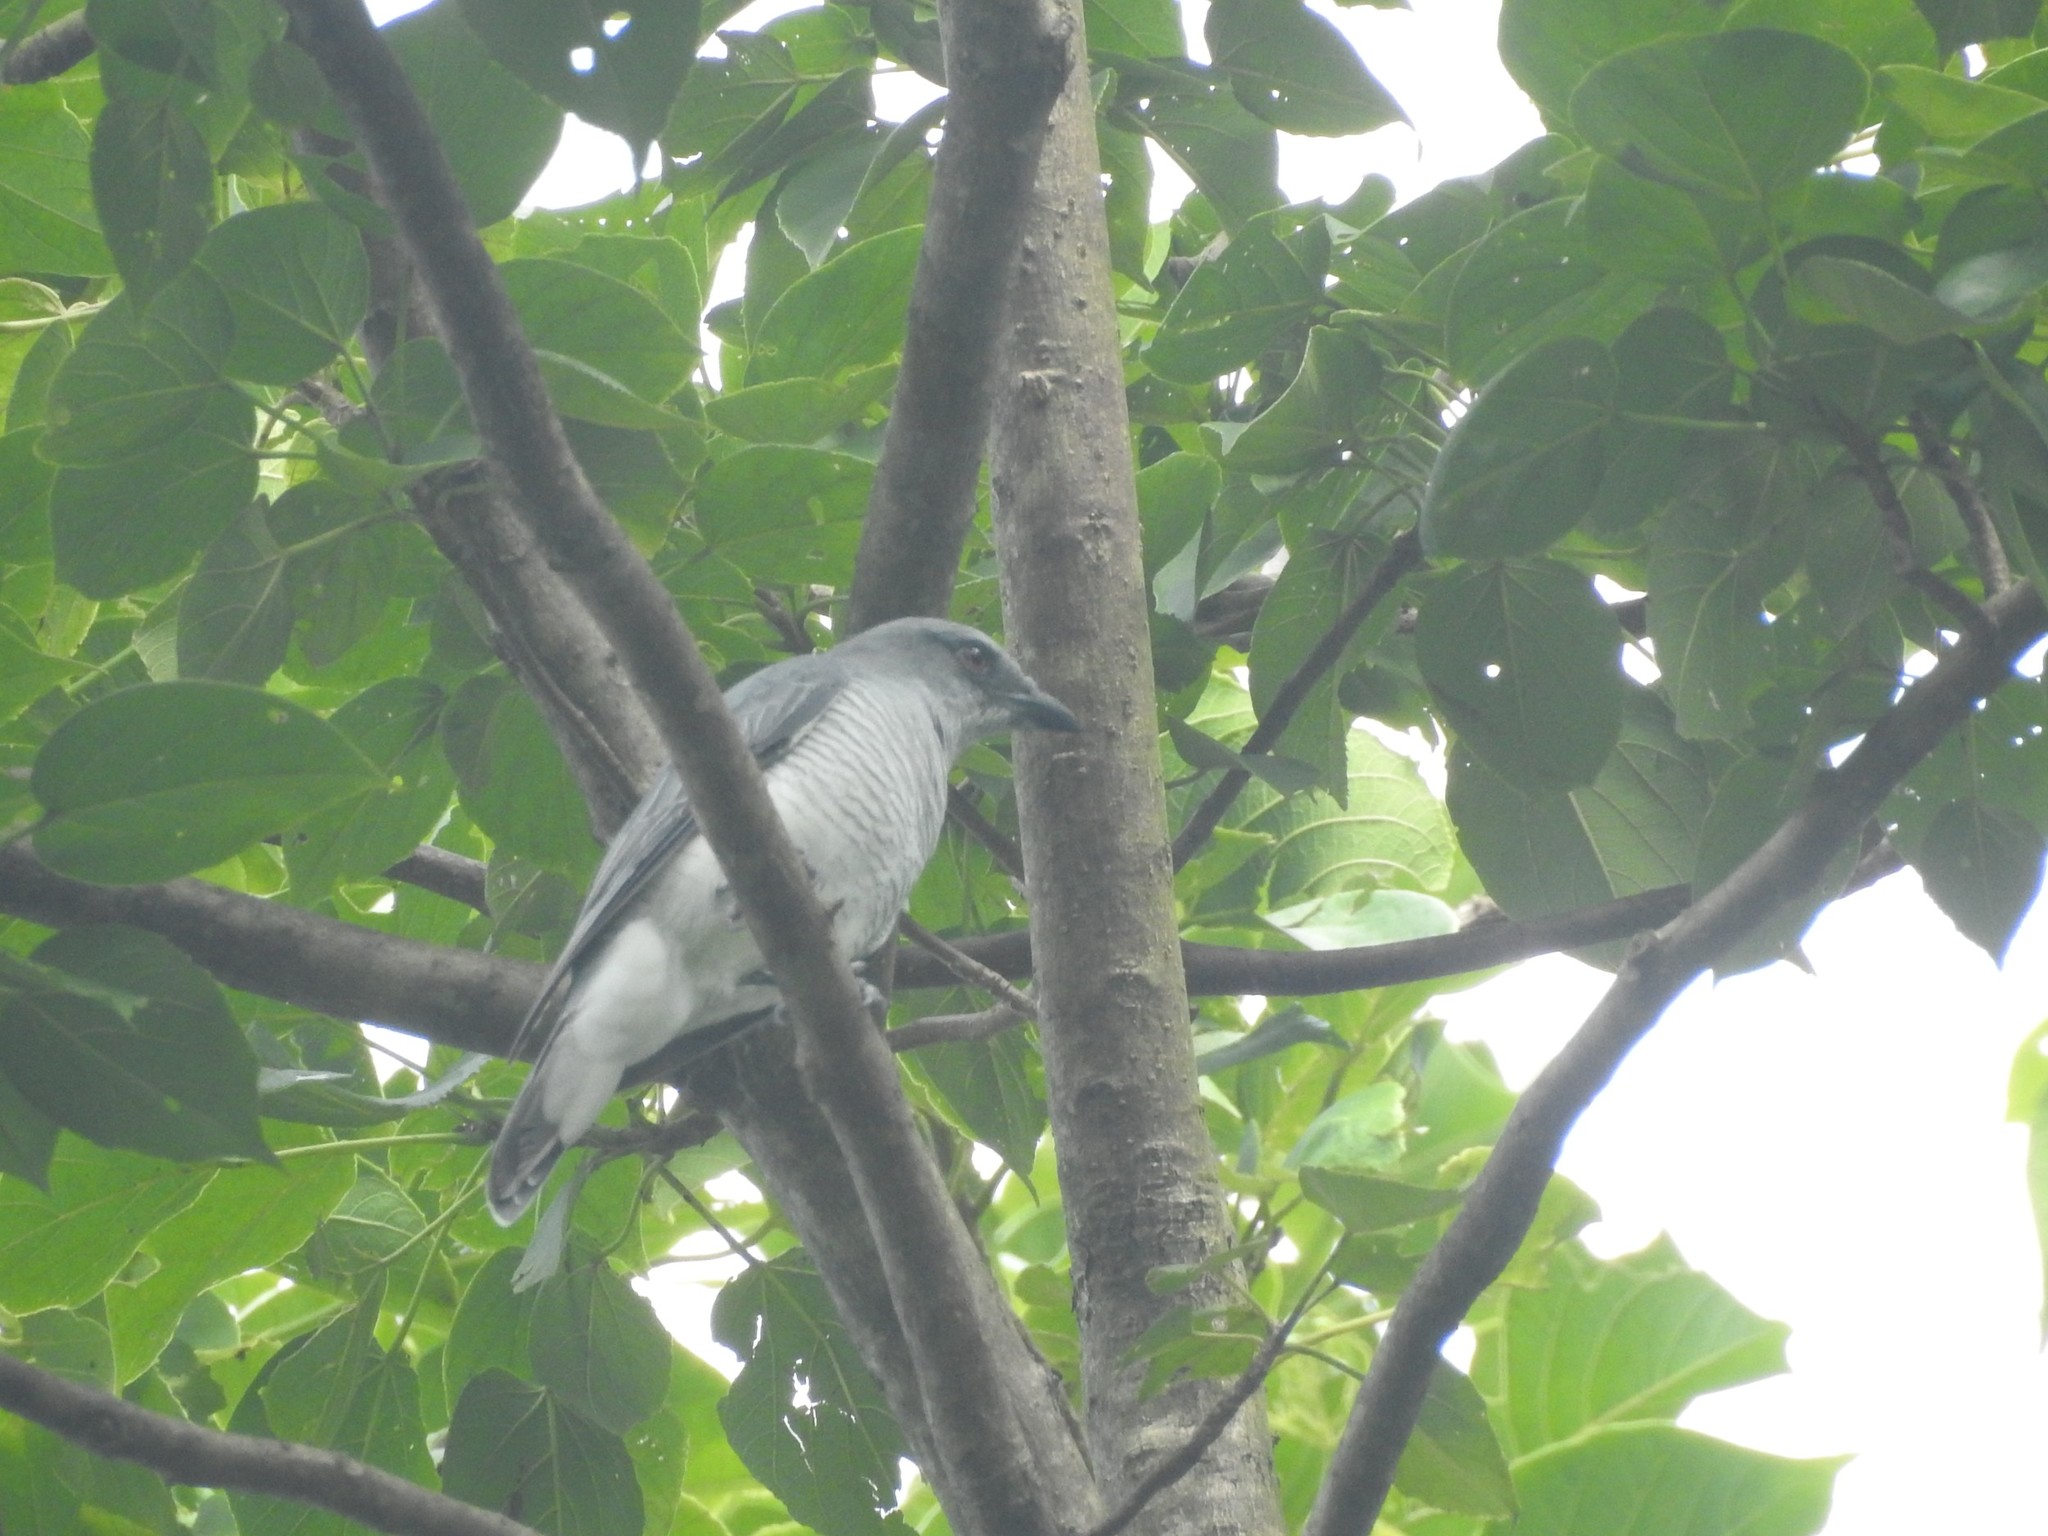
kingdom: Animalia
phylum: Chordata
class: Aves
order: Passeriformes
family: Campephagidae
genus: Coracina
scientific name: Coracina macei
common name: Large cuckooshrike
